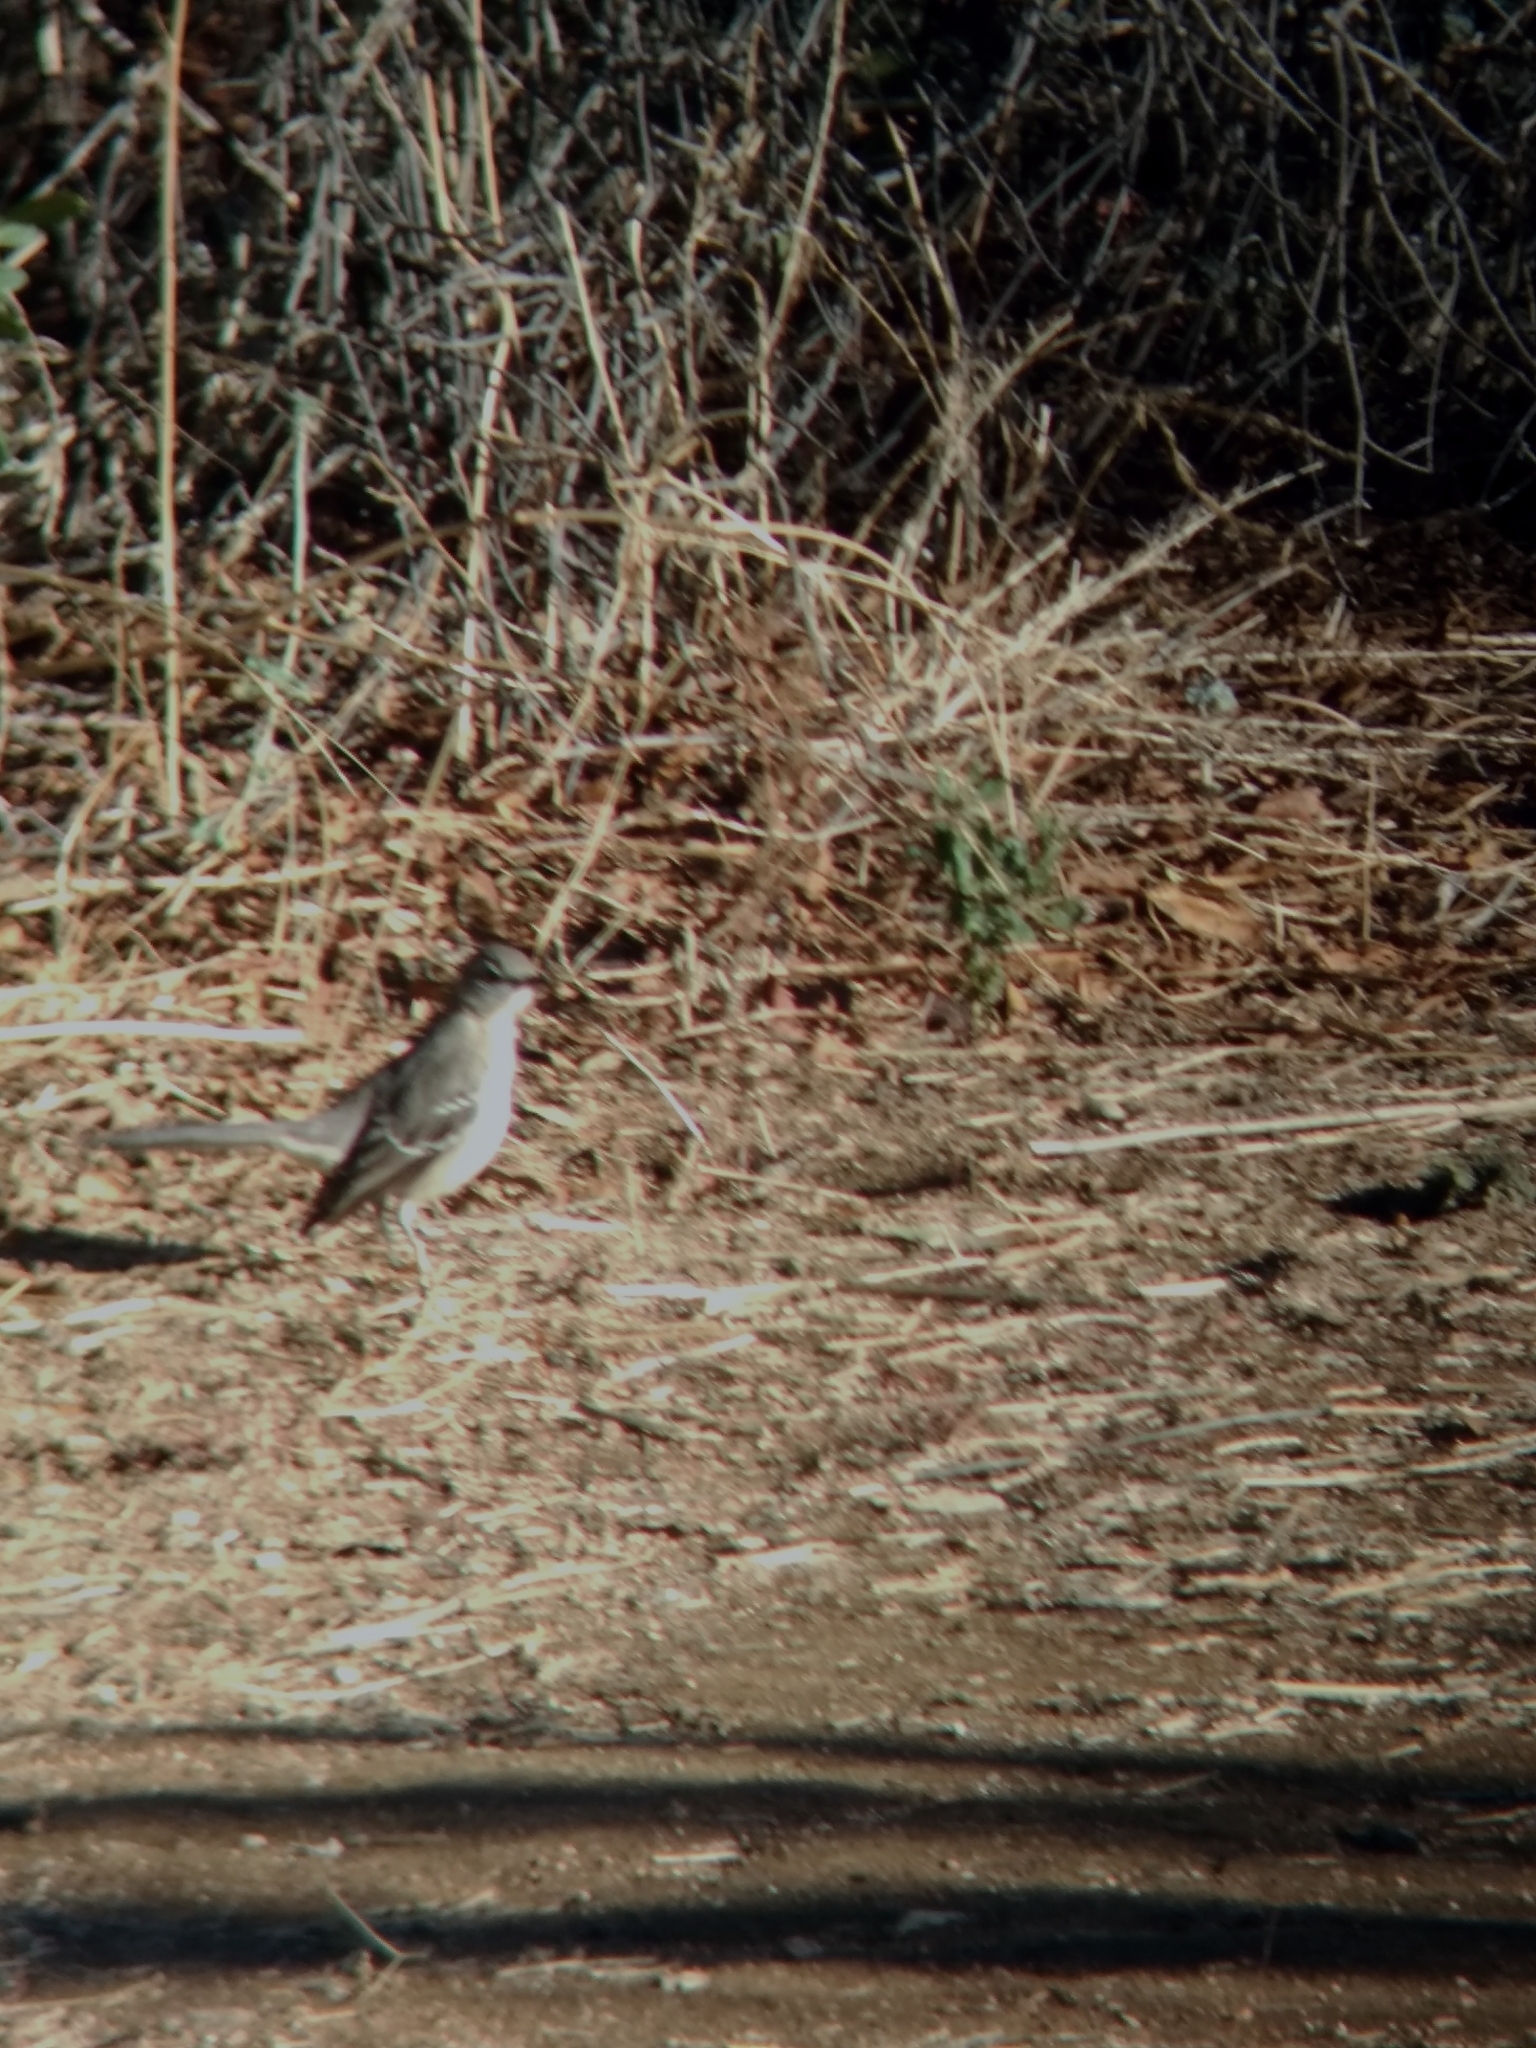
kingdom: Animalia
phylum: Chordata
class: Aves
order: Passeriformes
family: Mimidae
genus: Mimus
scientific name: Mimus polyglottos
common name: Northern mockingbird
